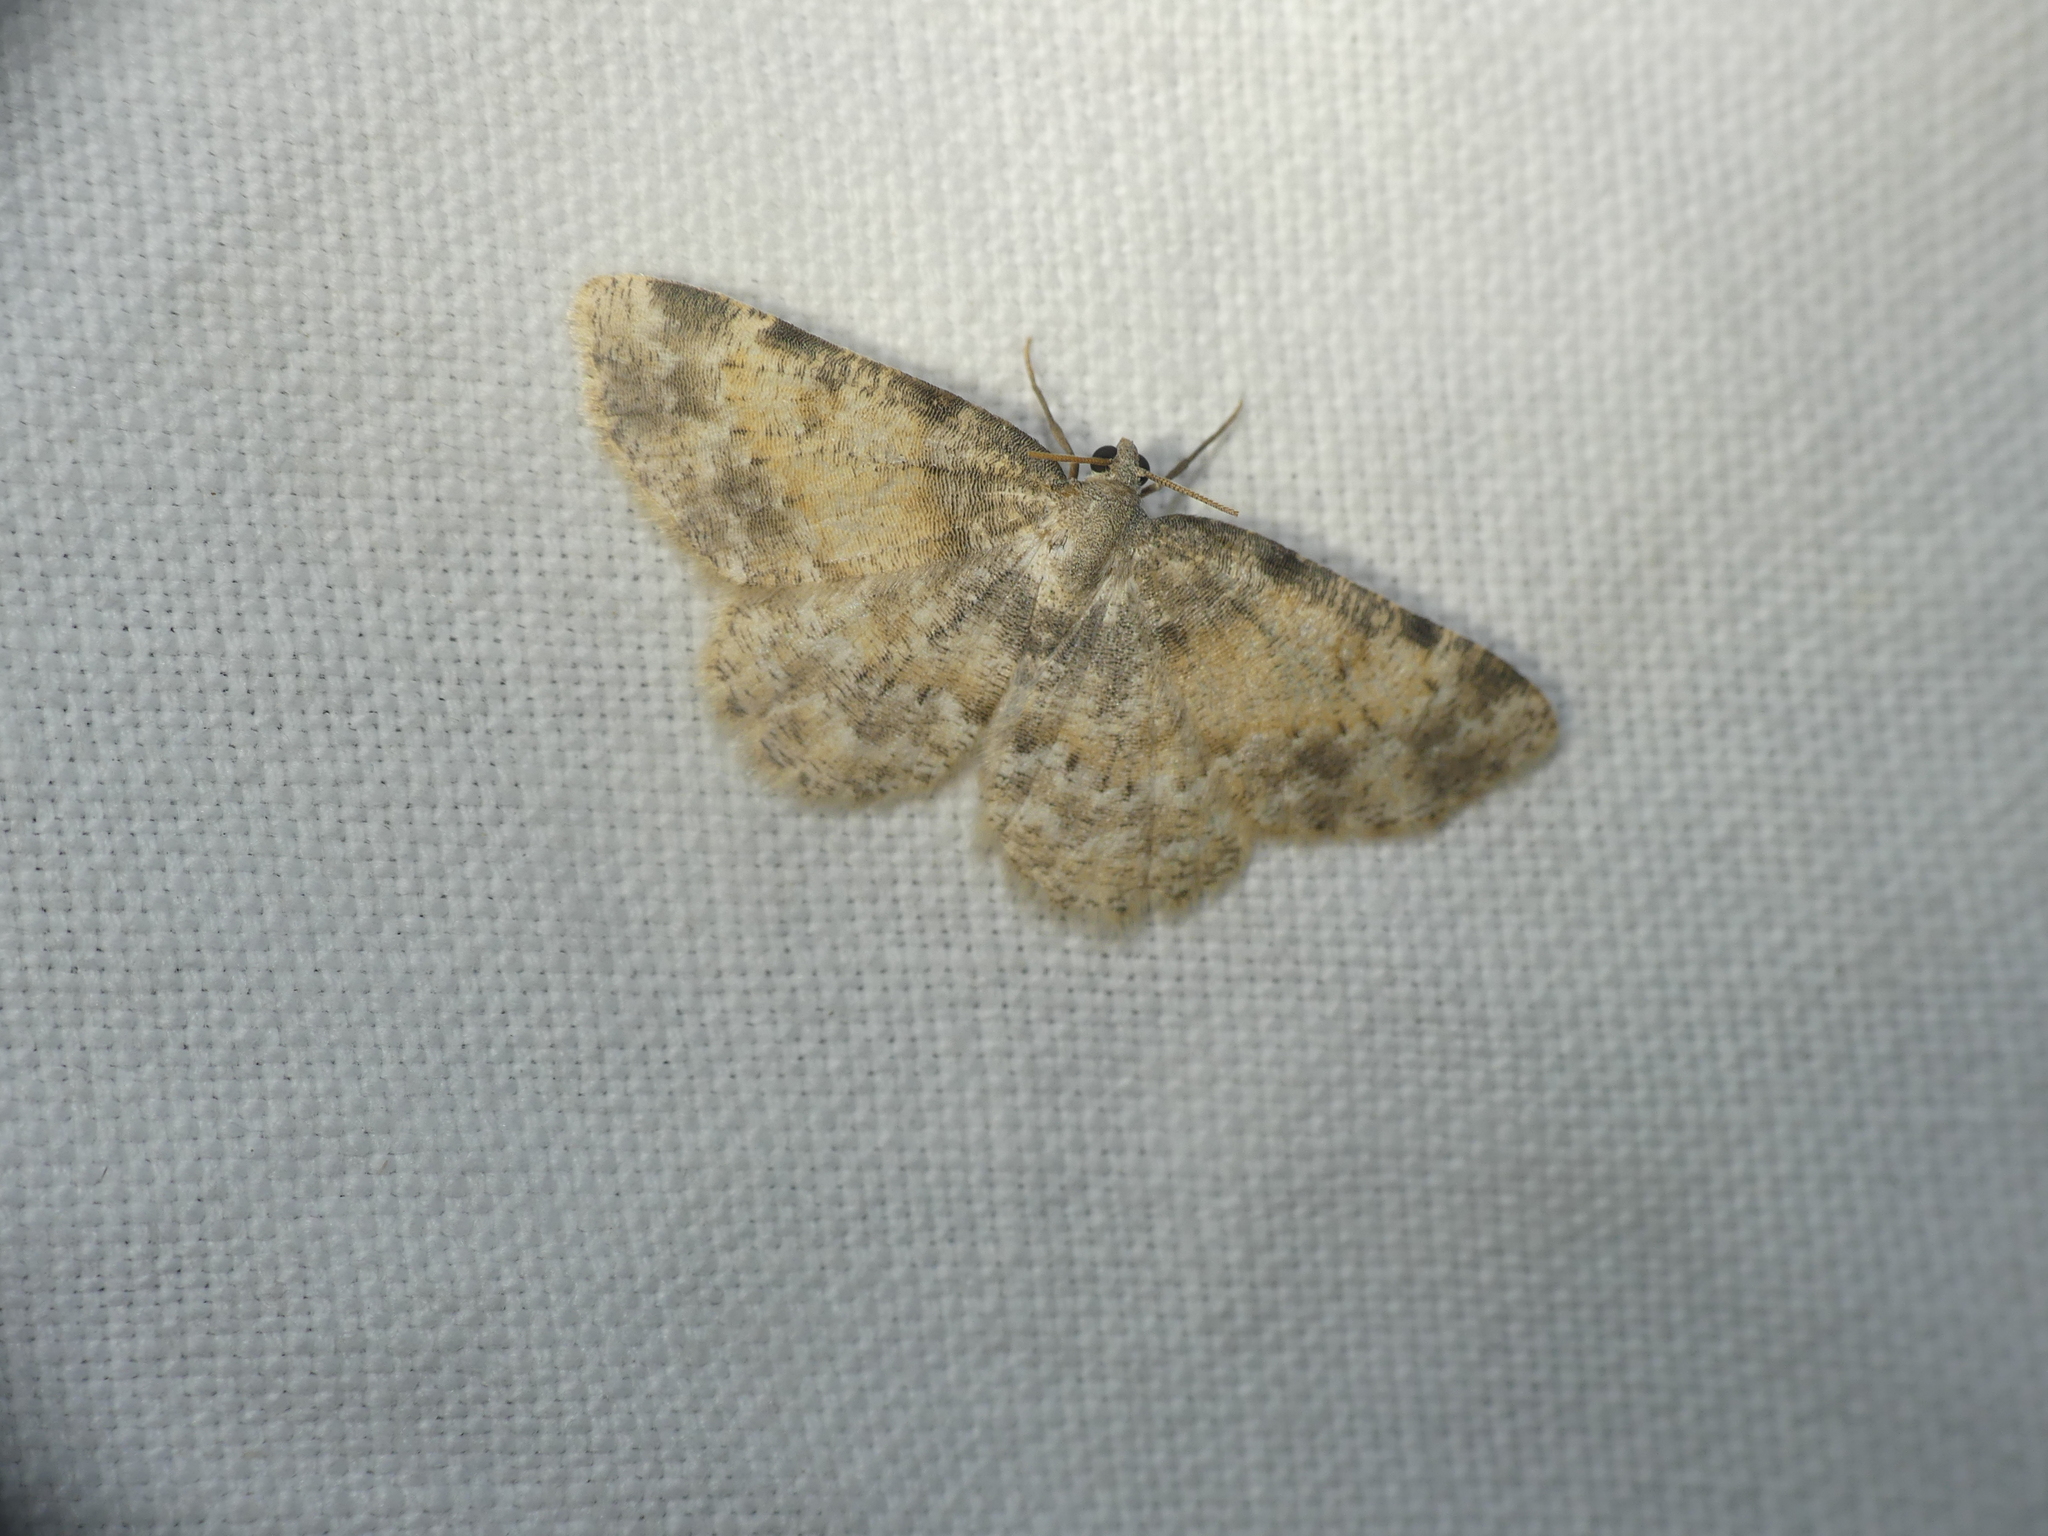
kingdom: Animalia
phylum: Arthropoda
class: Insecta
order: Lepidoptera
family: Geometridae
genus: Charissa
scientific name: Charissa variegata
